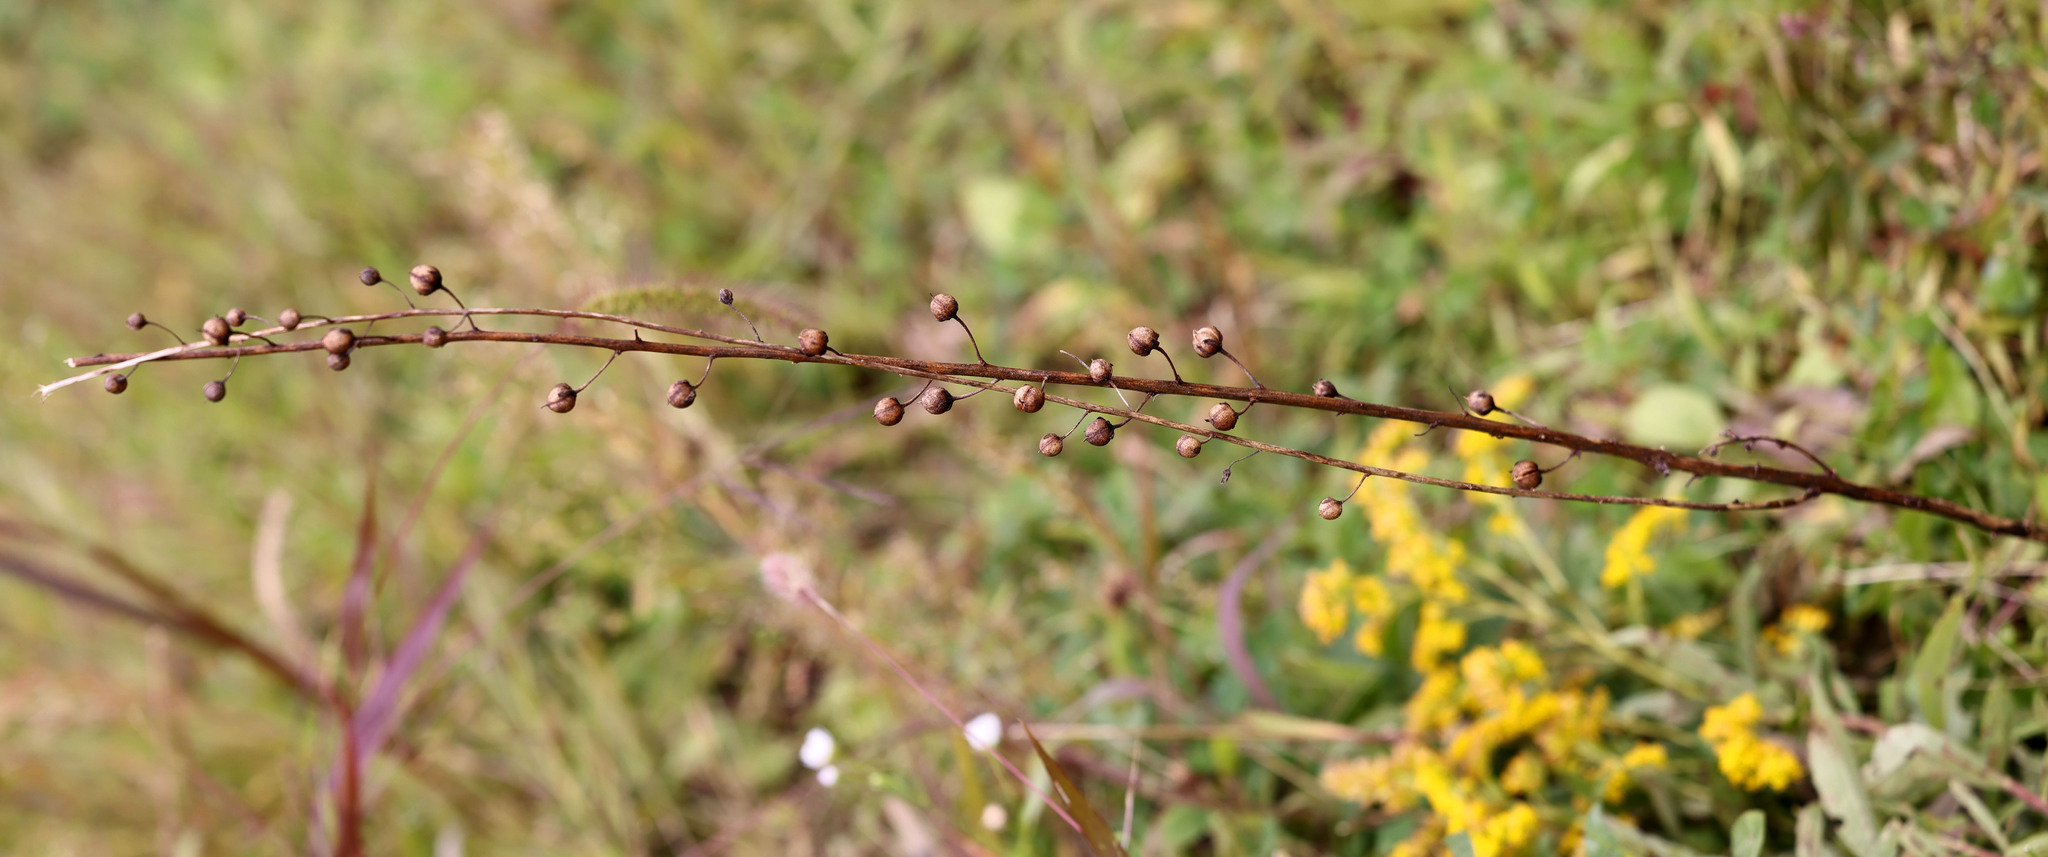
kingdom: Plantae
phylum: Tracheophyta
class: Magnoliopsida
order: Lamiales
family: Scrophulariaceae
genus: Verbascum
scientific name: Verbascum blattaria
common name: Moth mullein
